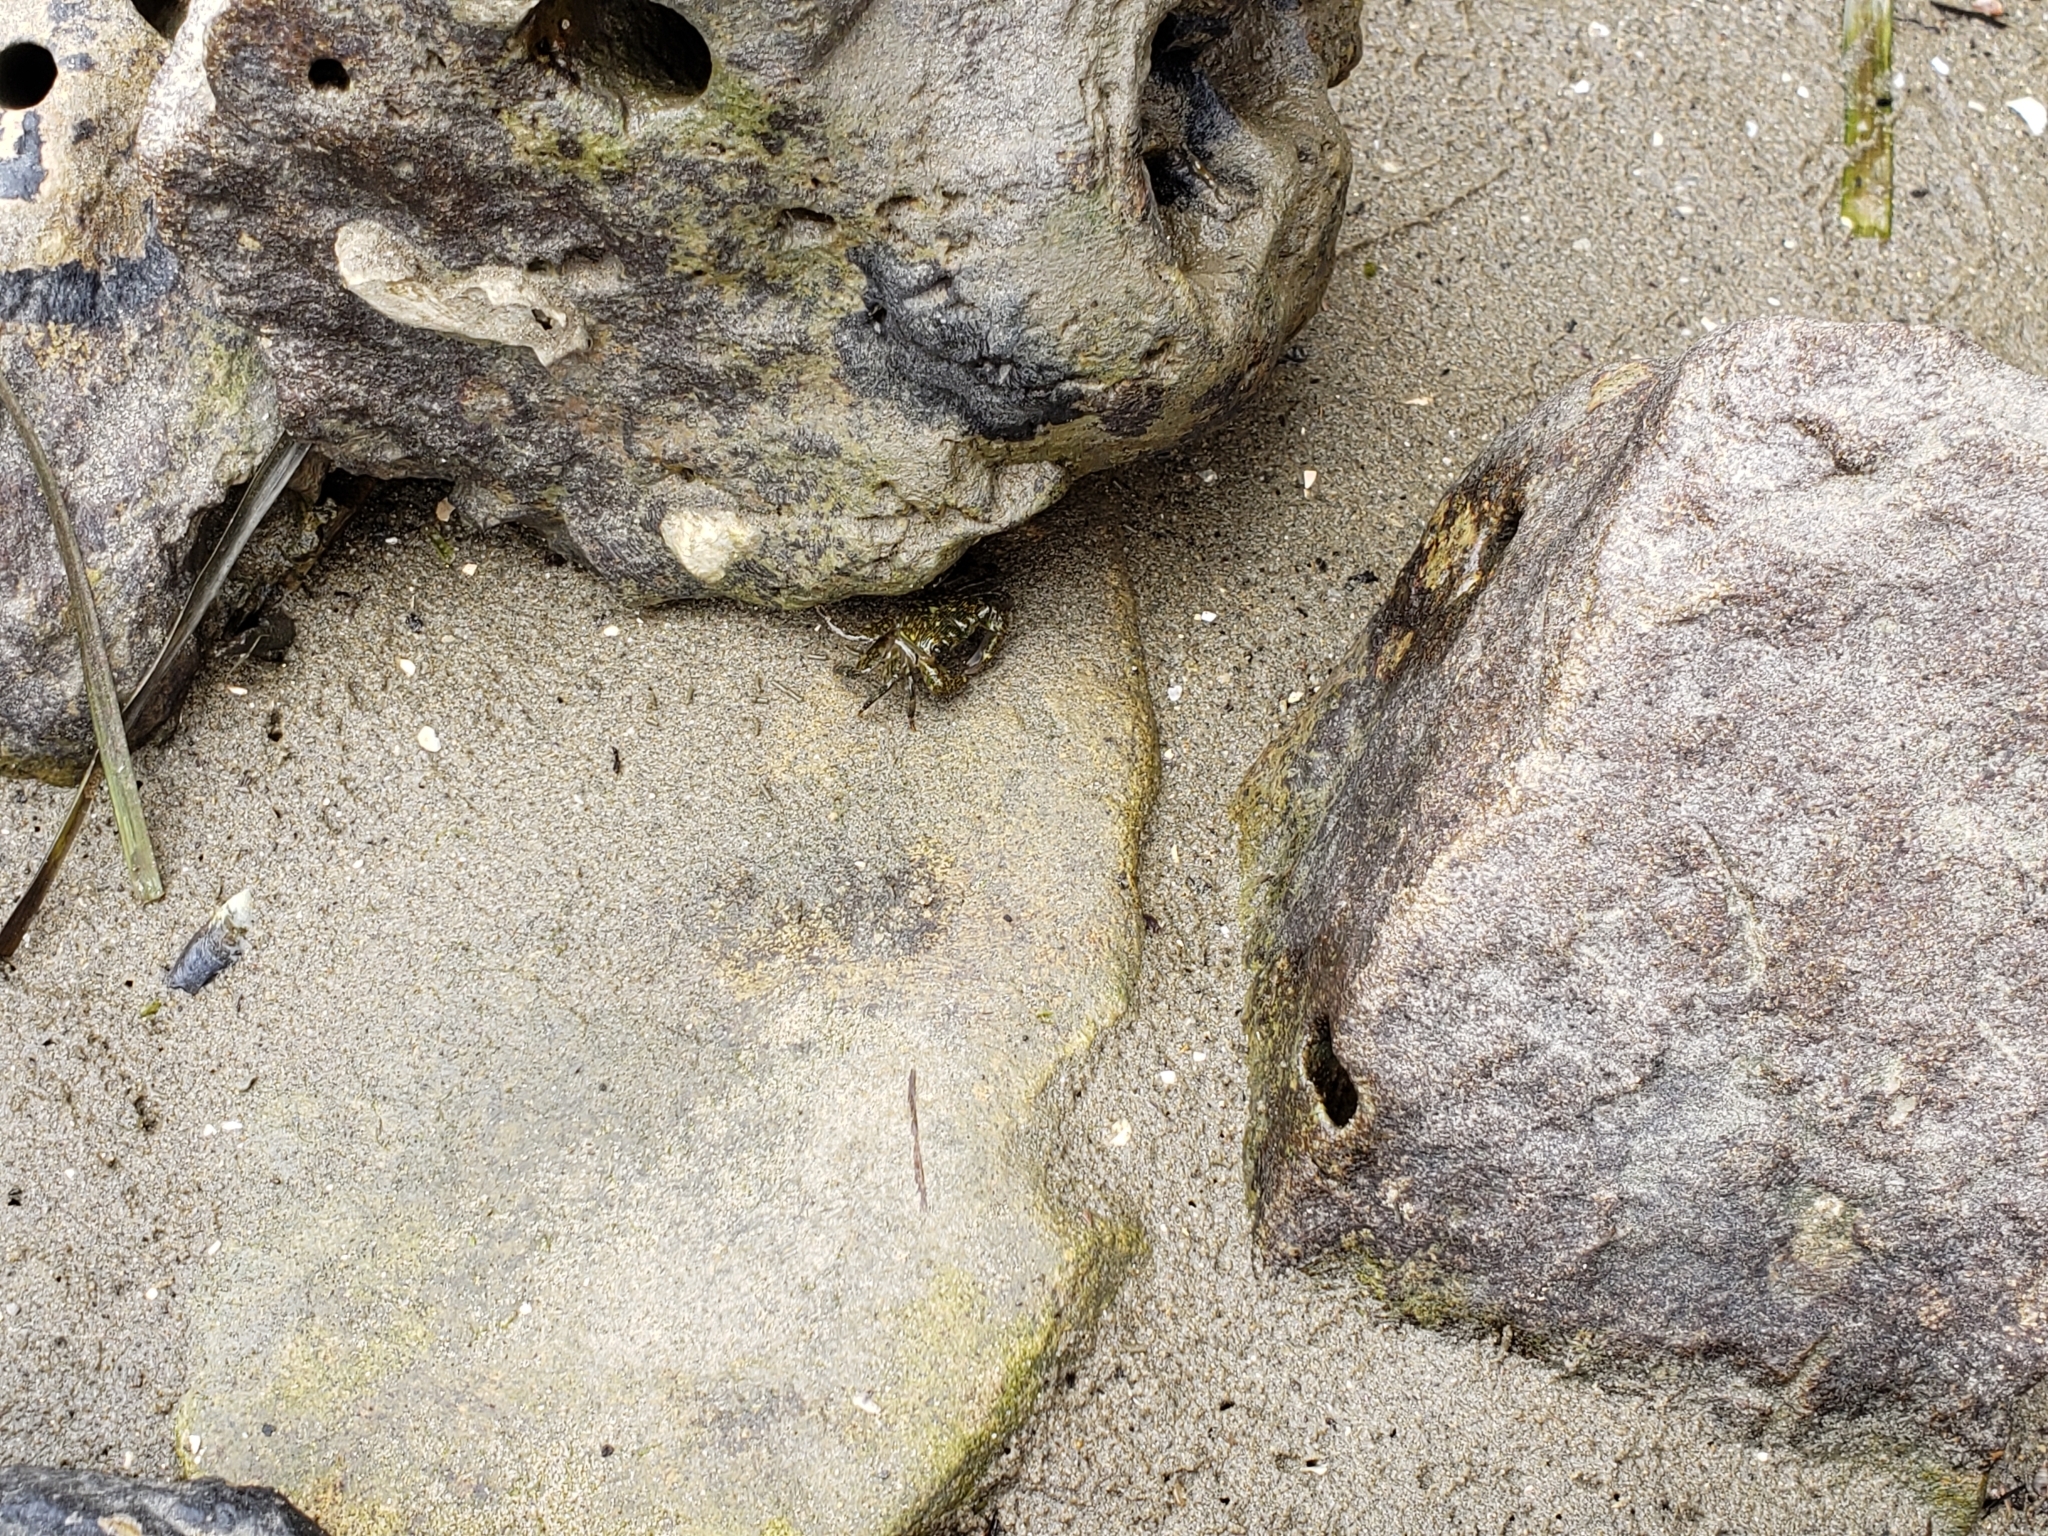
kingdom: Animalia
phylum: Arthropoda
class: Malacostraca
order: Decapoda
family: Grapsidae
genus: Pachygrapsus
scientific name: Pachygrapsus crassipes
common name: Striped shore crab
